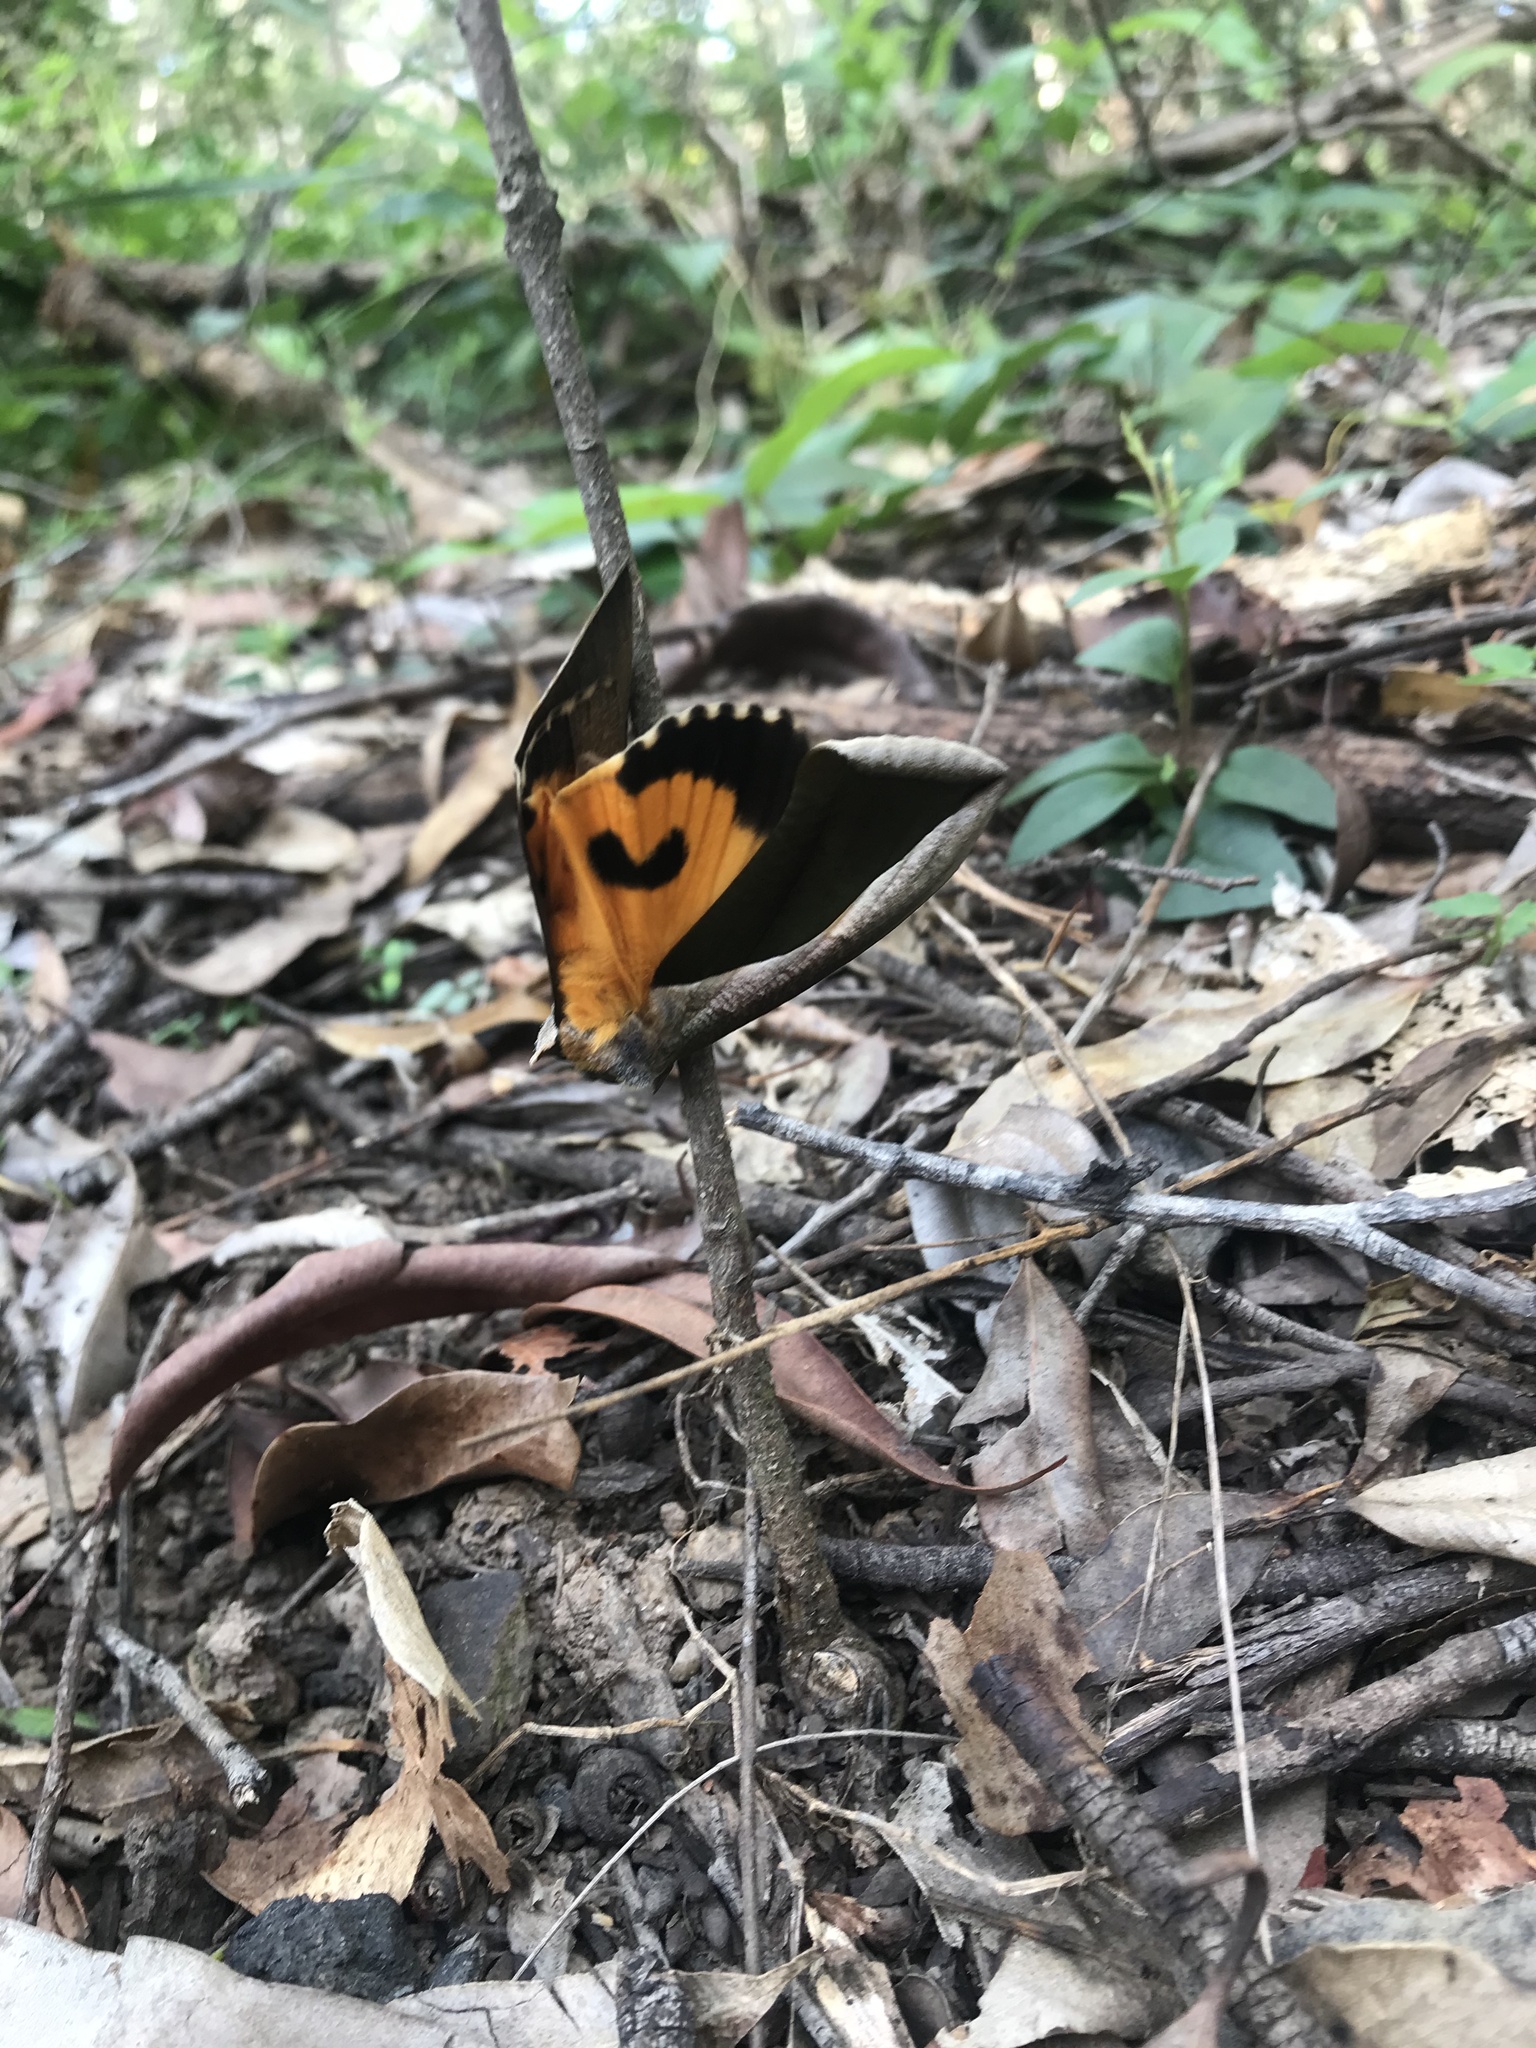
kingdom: Animalia
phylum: Arthropoda
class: Insecta
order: Lepidoptera
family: Erebidae
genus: Eudocima
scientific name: Eudocima salaminia
